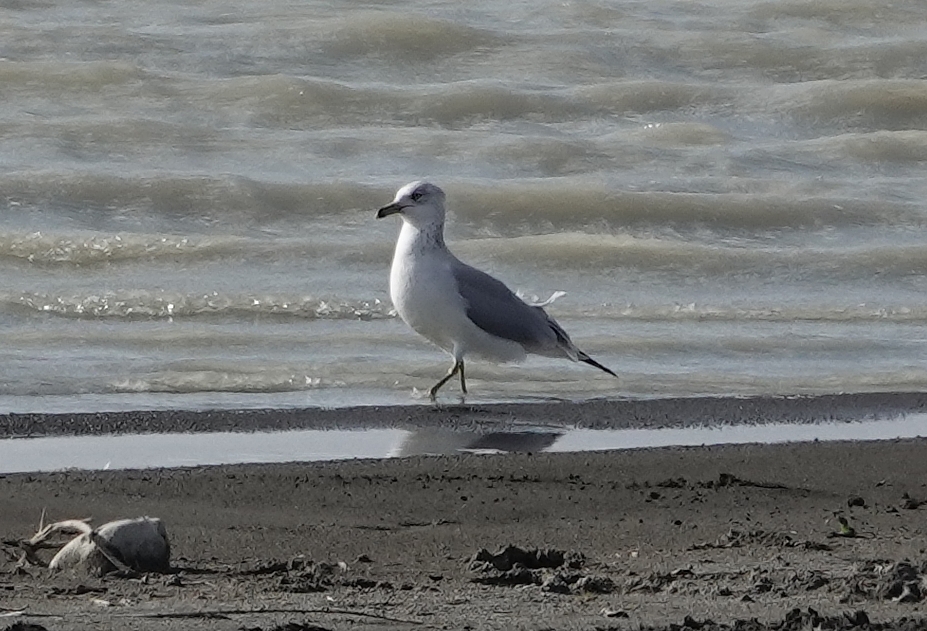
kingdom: Animalia
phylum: Chordata
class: Aves
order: Charadriiformes
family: Laridae
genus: Larus
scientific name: Larus delawarensis
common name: Ring-billed gull
